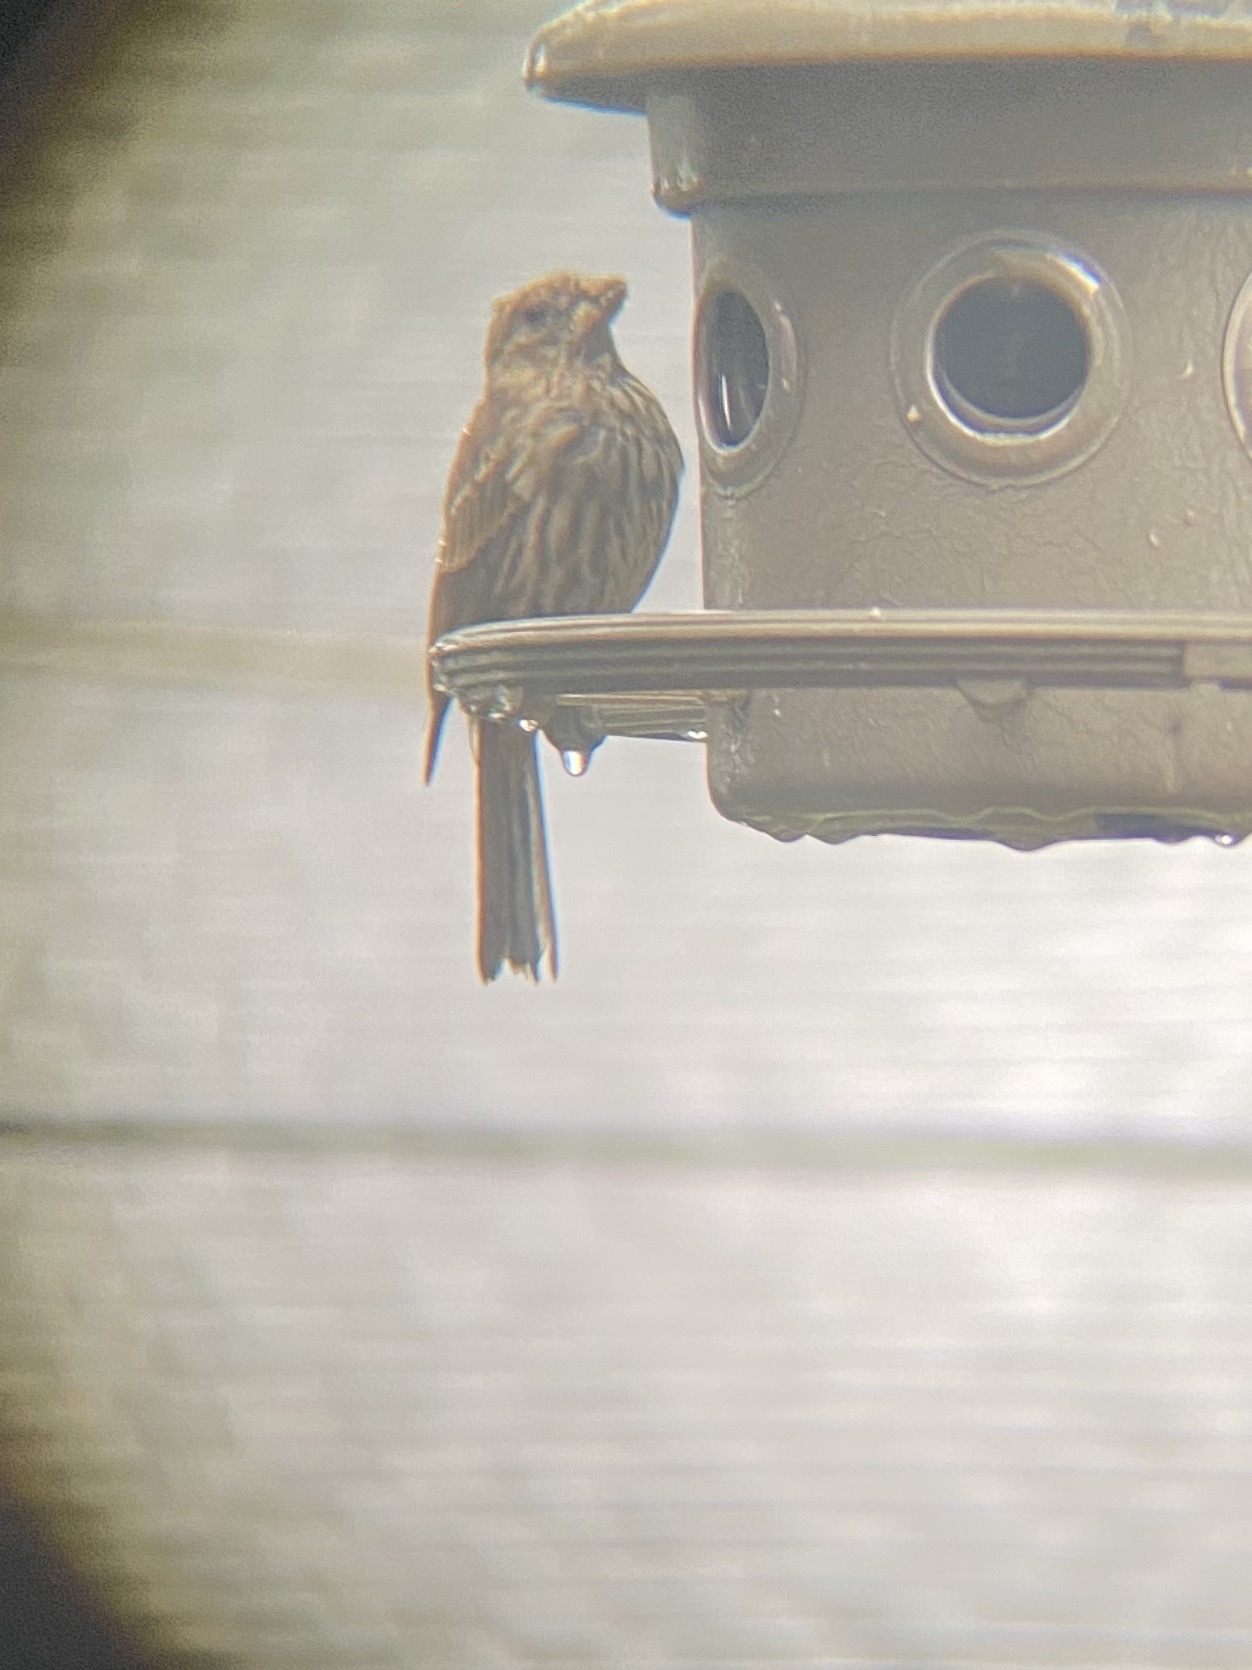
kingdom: Animalia
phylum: Chordata
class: Aves
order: Passeriformes
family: Fringillidae
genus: Haemorhous
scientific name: Haemorhous mexicanus
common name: House finch
